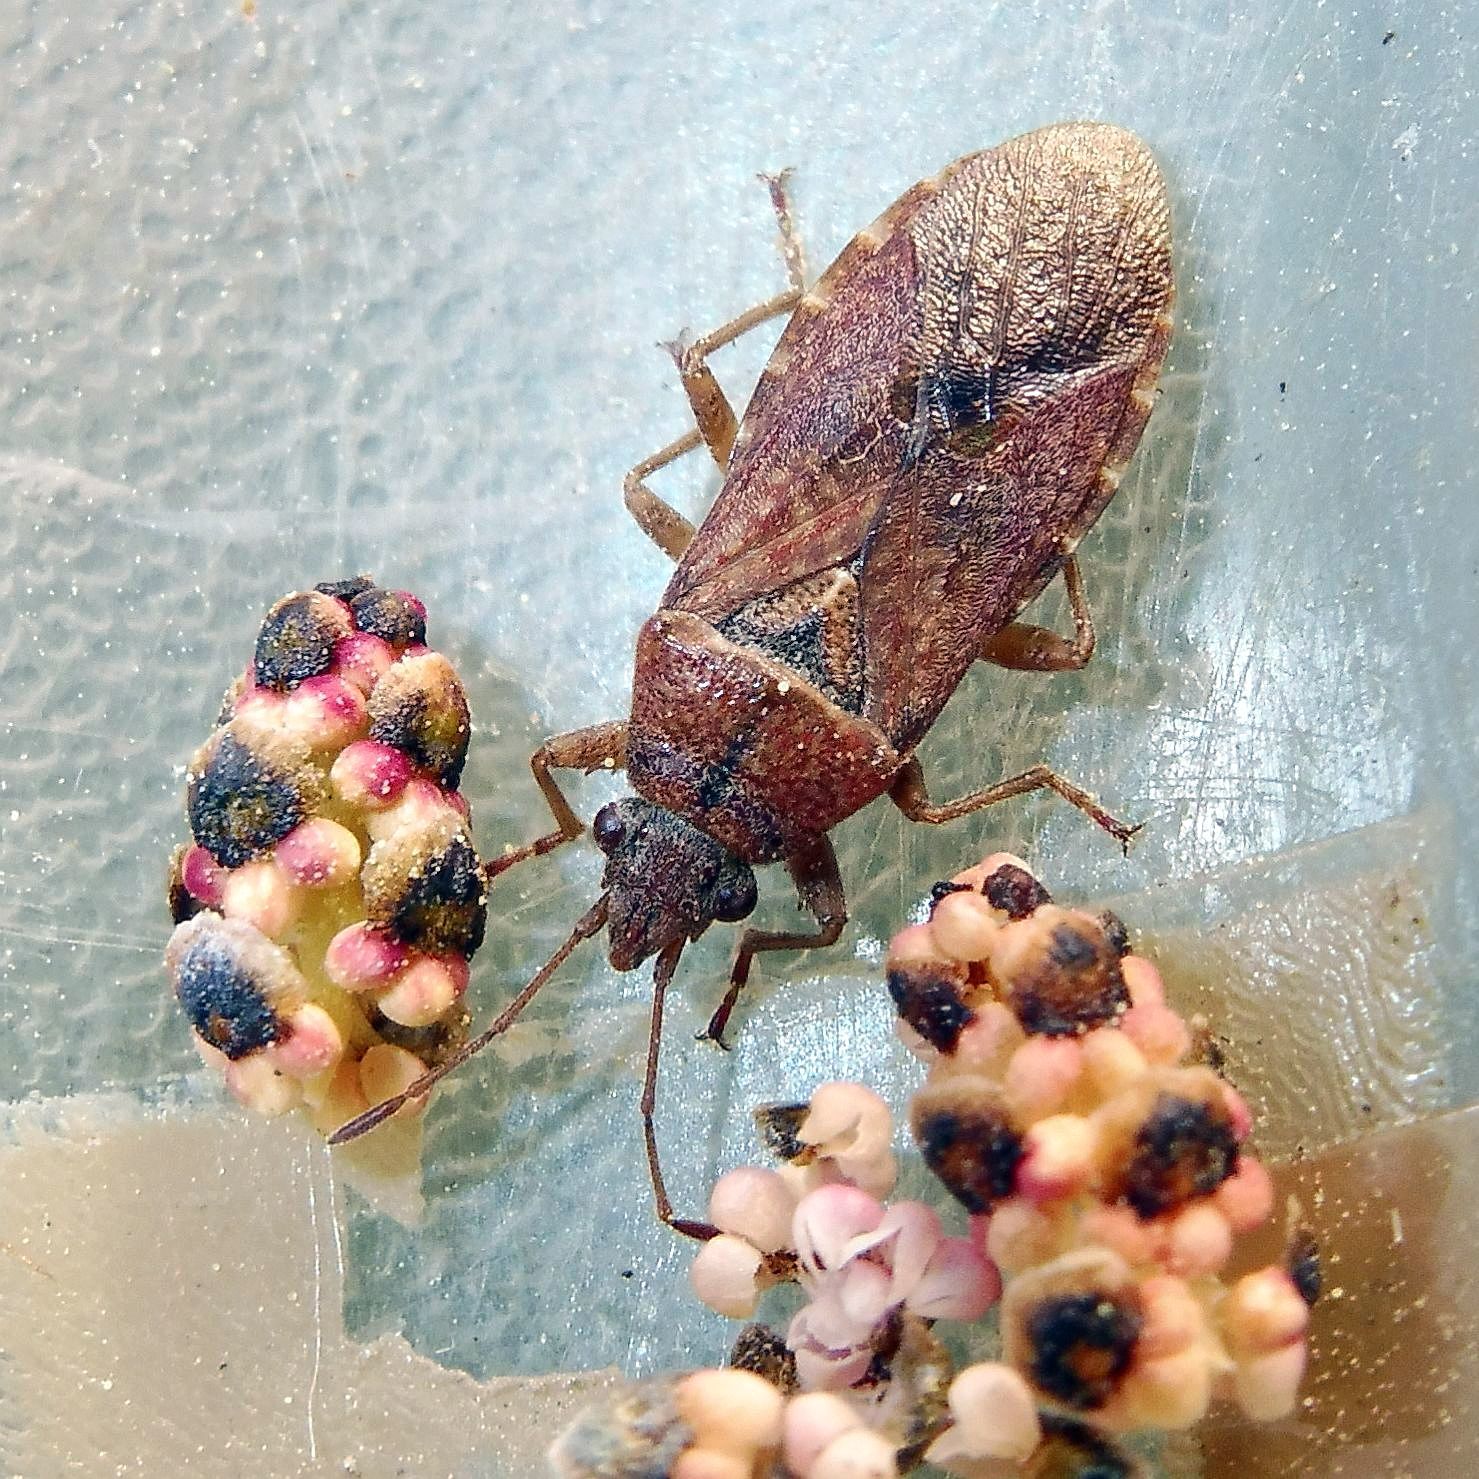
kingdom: Animalia
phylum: Arthropoda
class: Insecta
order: Hemiptera
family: Lygaeidae
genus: Orsillus
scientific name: Orsillus depressus
